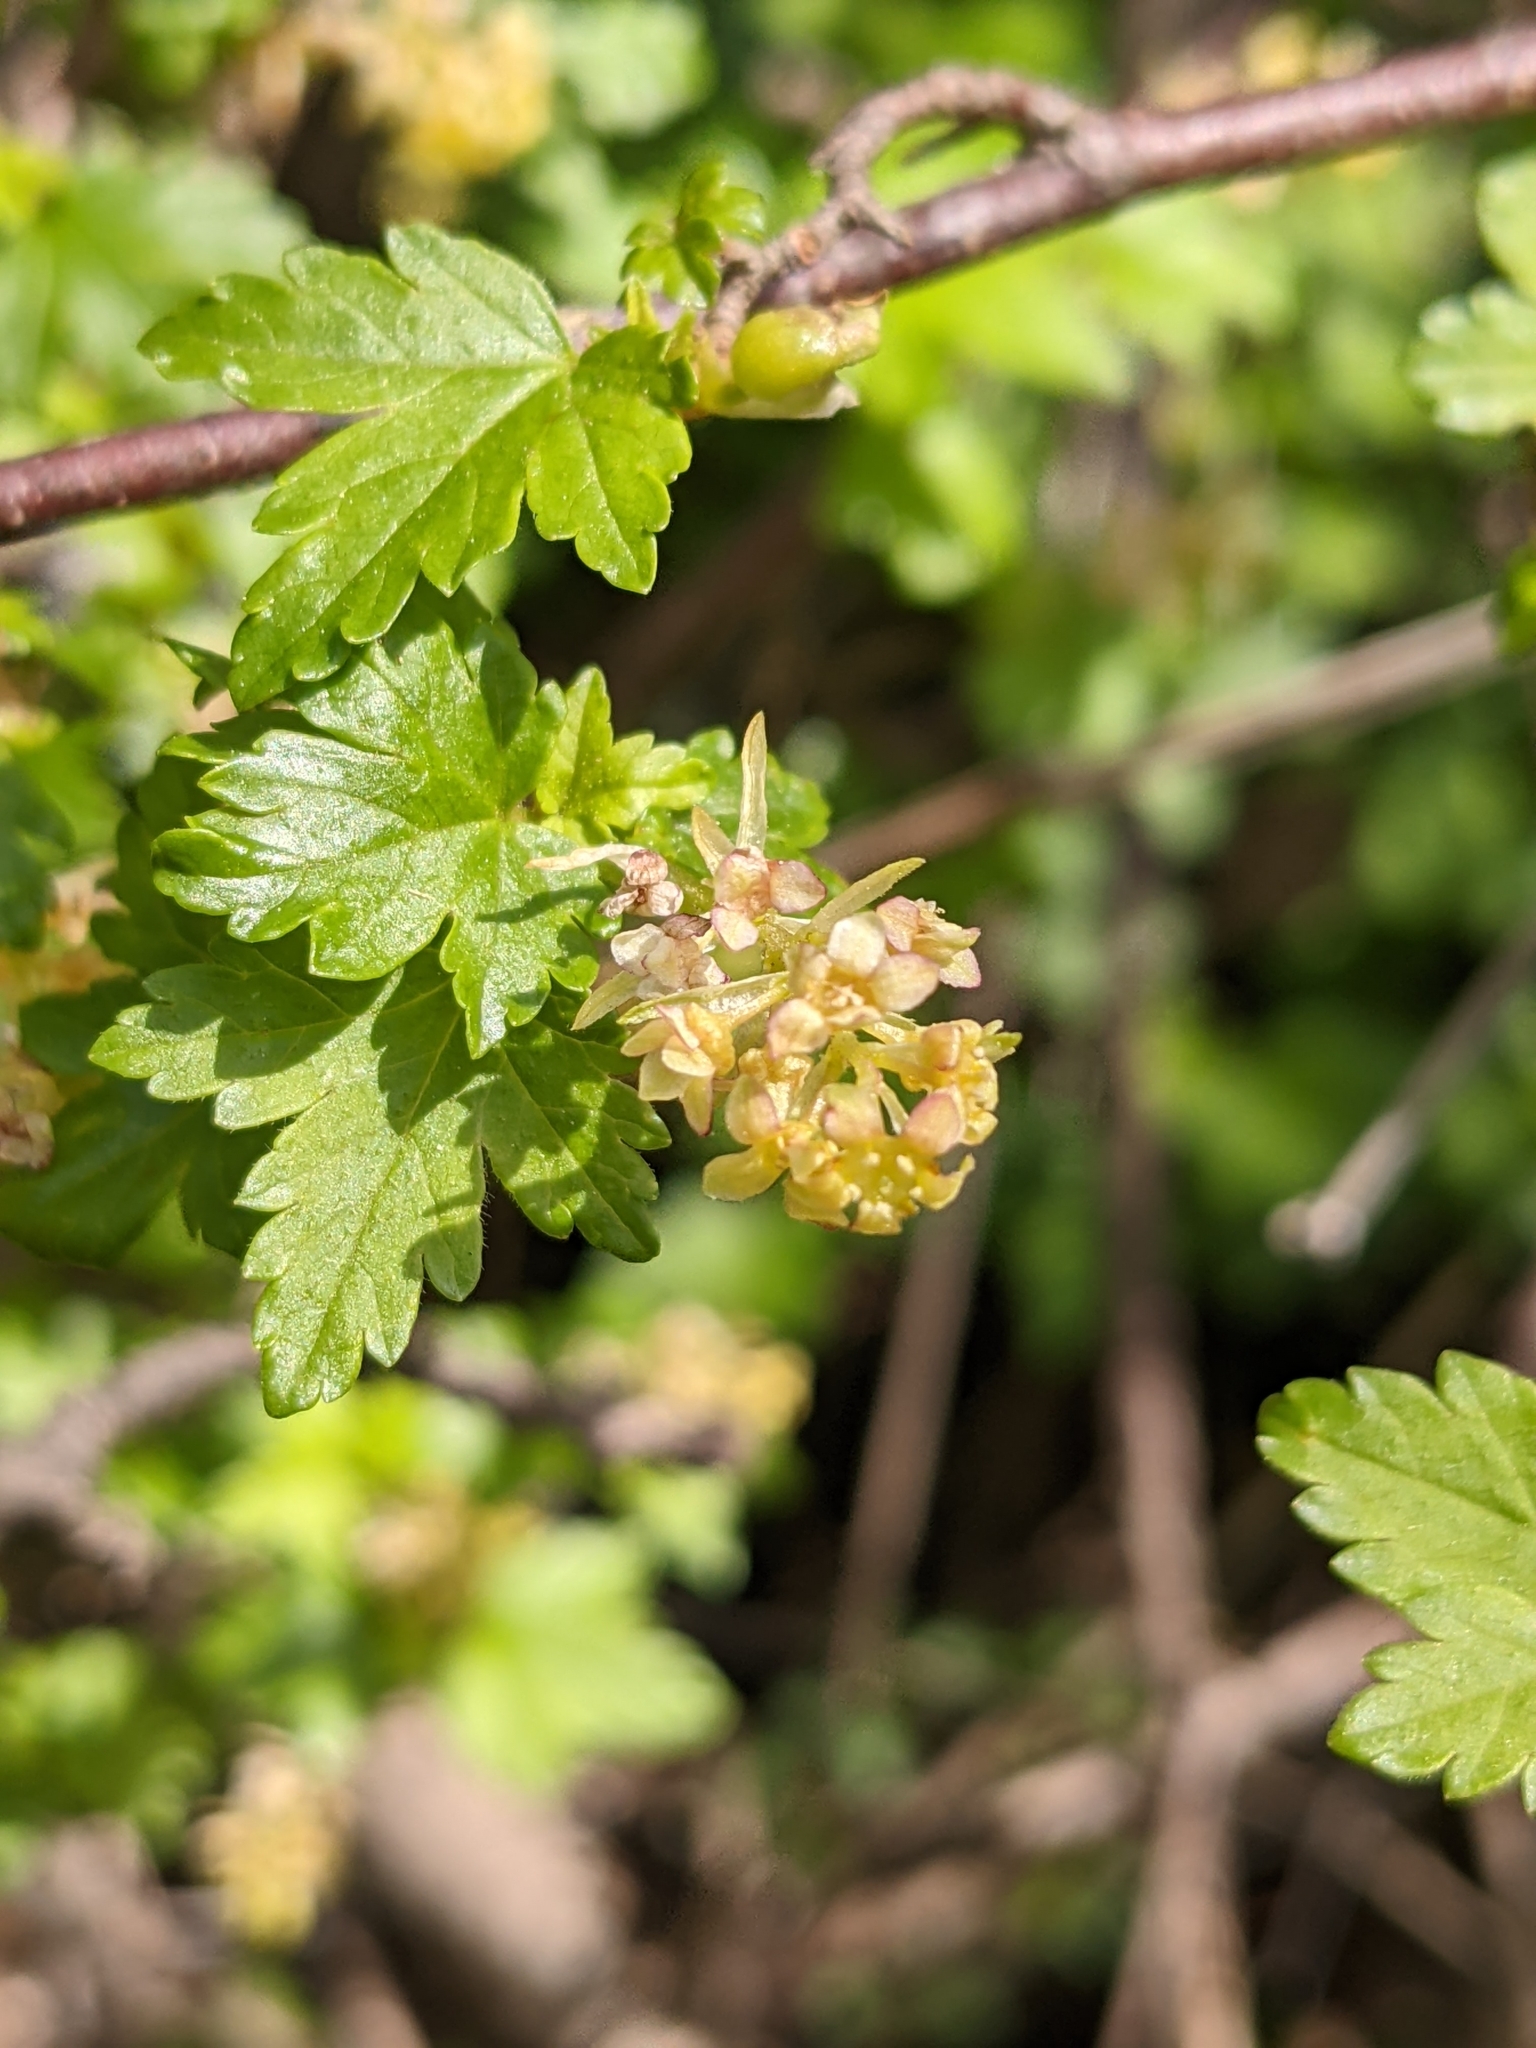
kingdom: Plantae
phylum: Tracheophyta
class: Magnoliopsida
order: Saxifragales
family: Grossulariaceae
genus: Ribes
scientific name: Ribes alpinum
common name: Alpine currant
